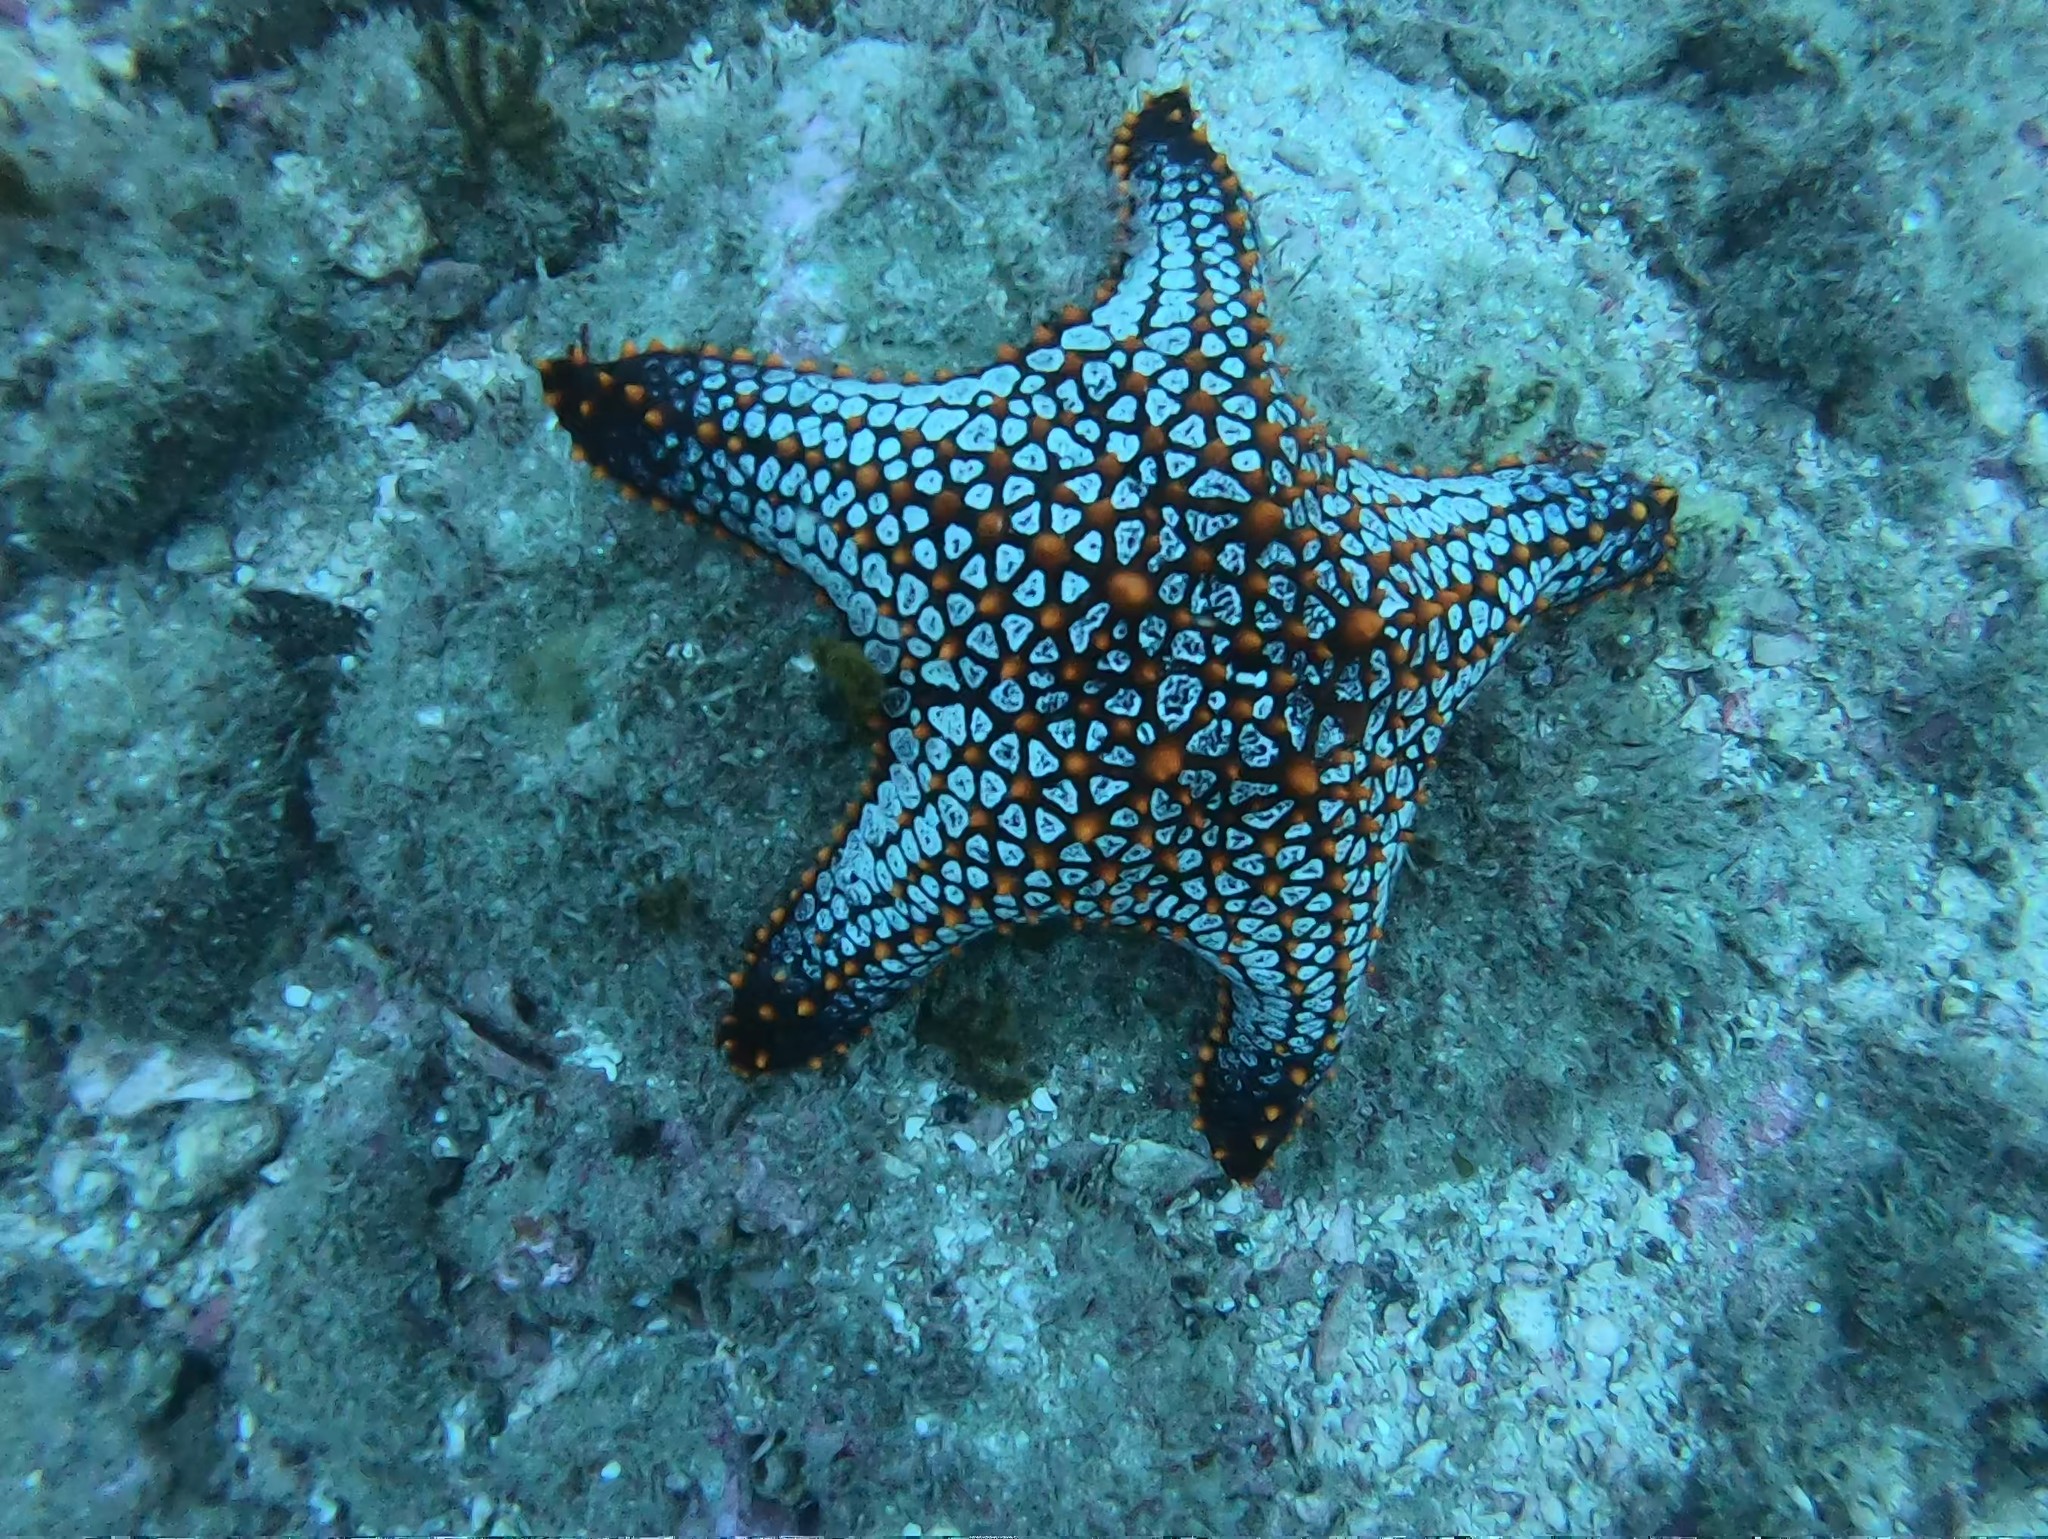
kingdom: Animalia
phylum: Echinodermata
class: Asteroidea
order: Valvatida
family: Oreasteridae
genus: Pentaceraster
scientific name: Pentaceraster cumingi
